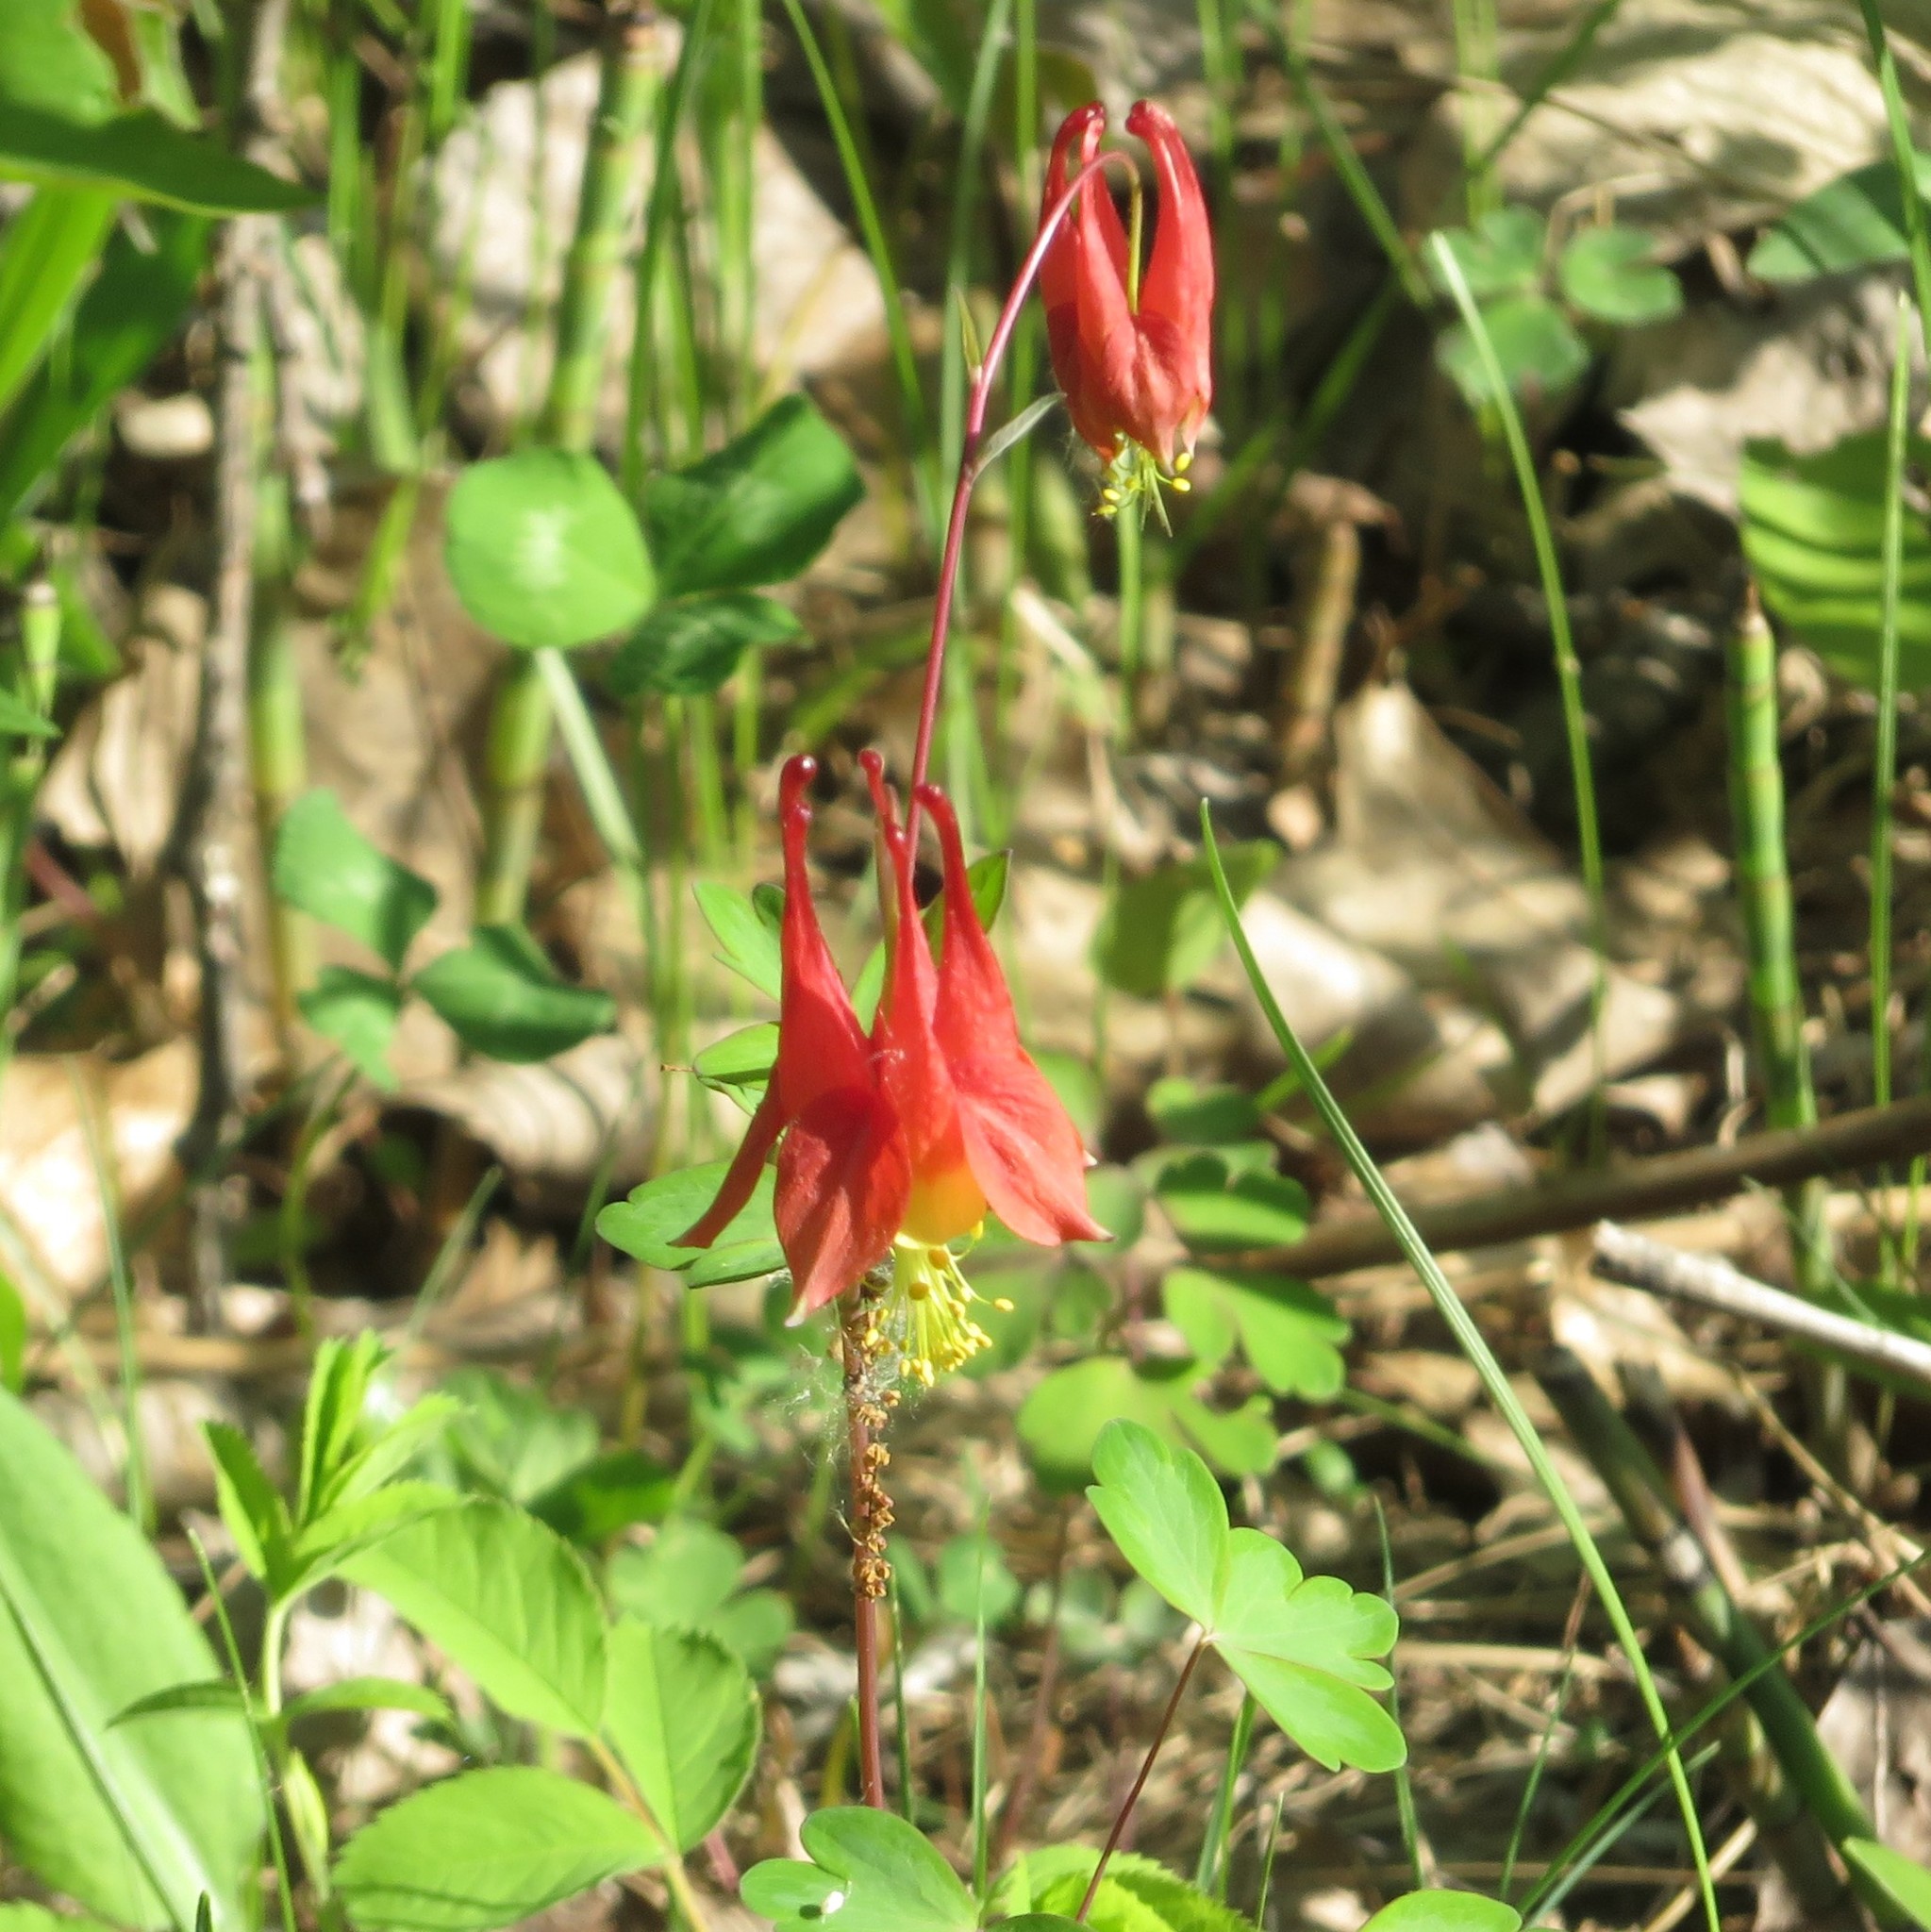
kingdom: Plantae
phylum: Tracheophyta
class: Magnoliopsida
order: Ranunculales
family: Ranunculaceae
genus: Aquilegia
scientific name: Aquilegia canadensis
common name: American columbine
